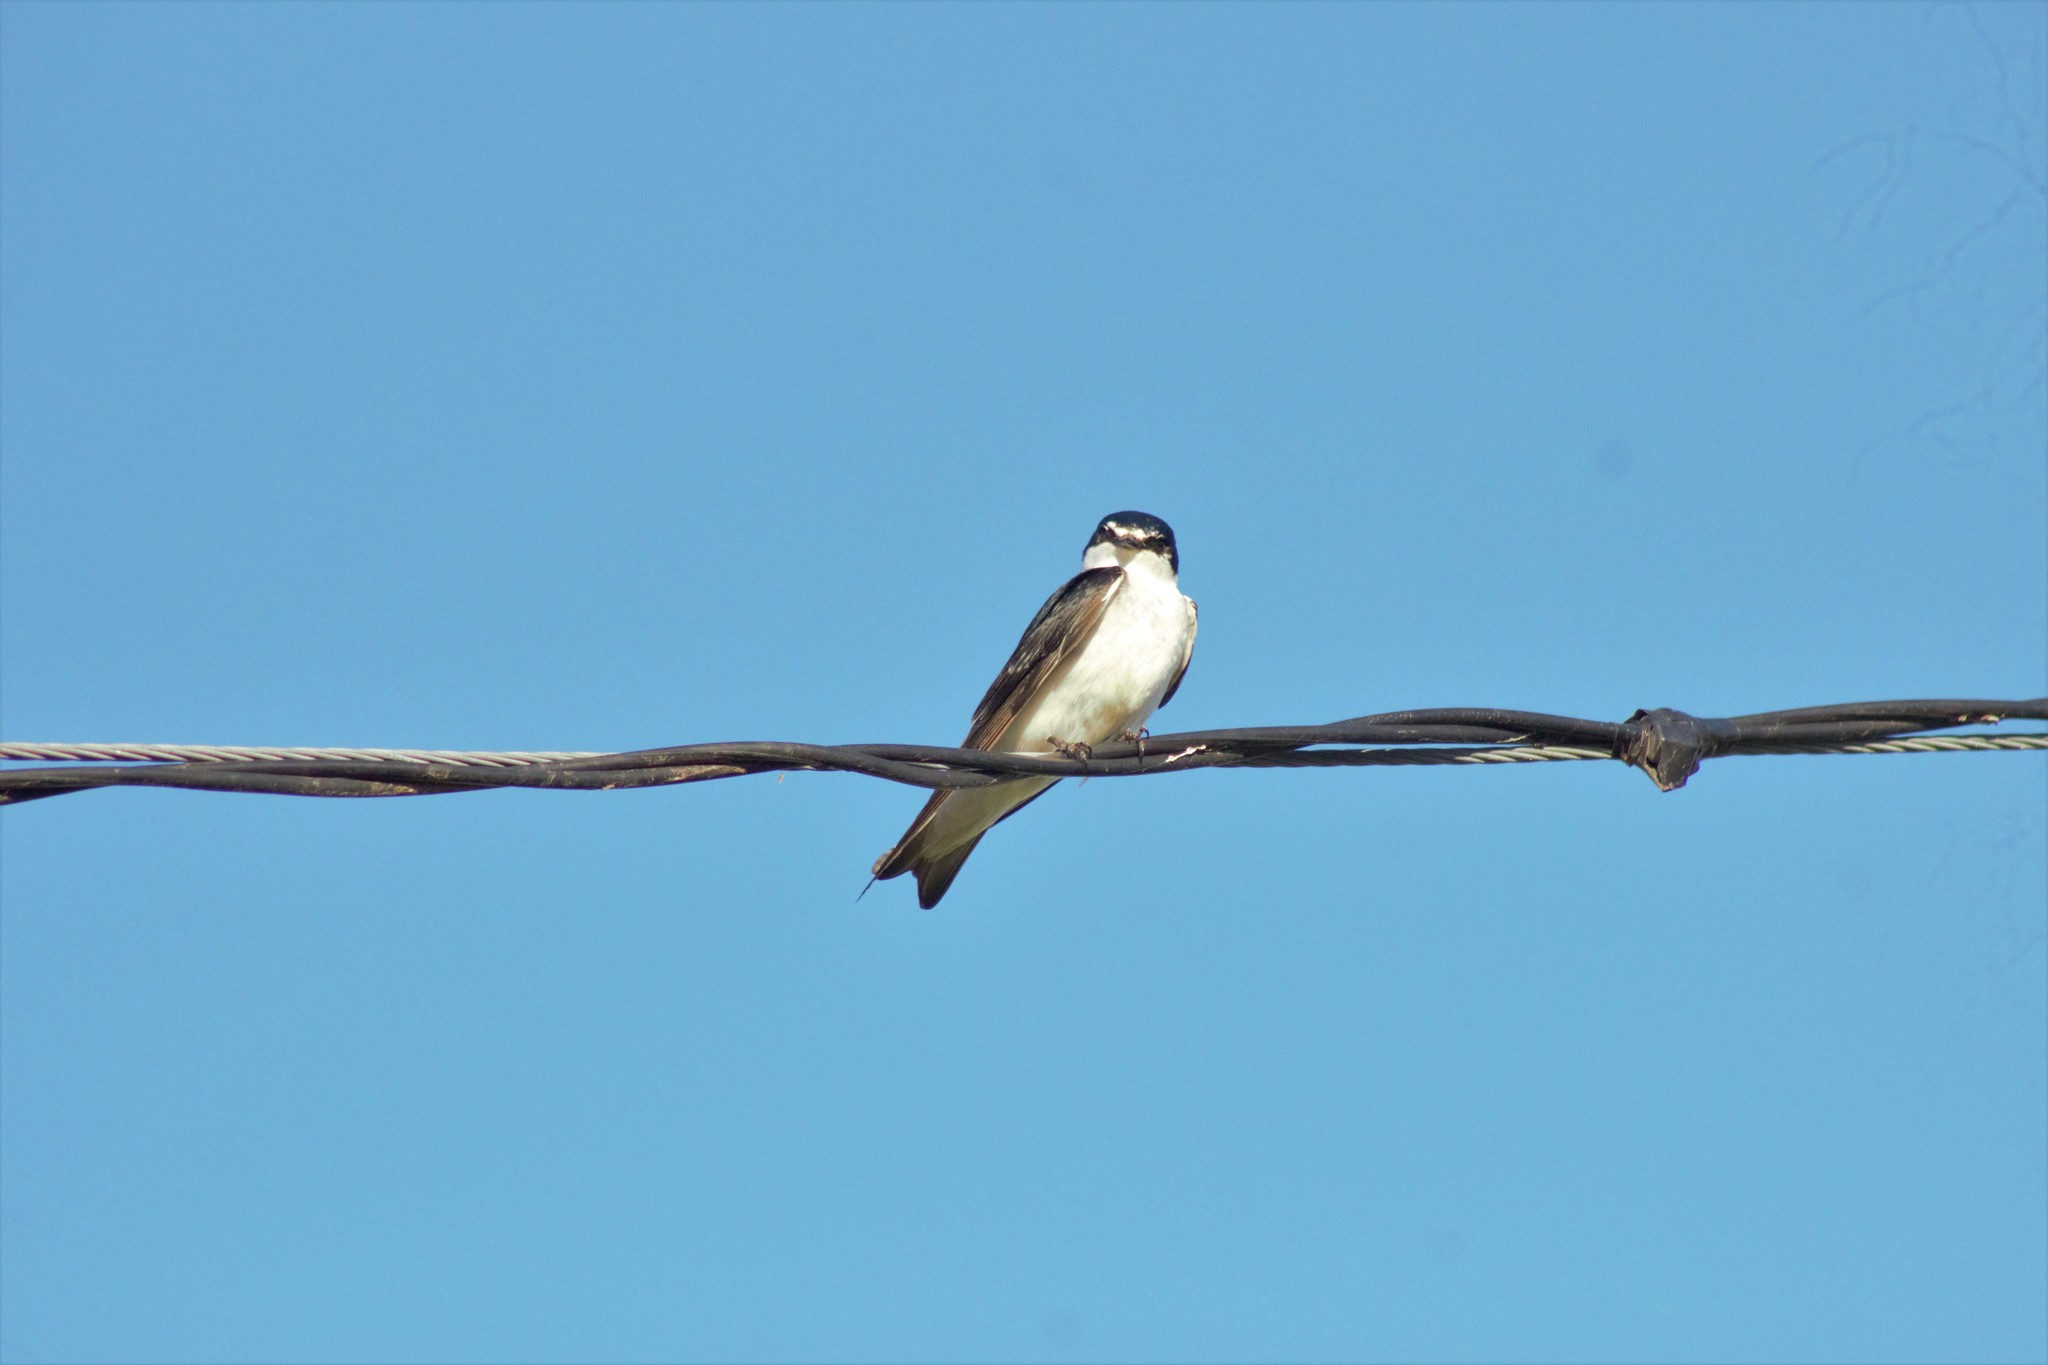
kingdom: Animalia
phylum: Chordata
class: Aves
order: Passeriformes
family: Hirundinidae
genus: Tachycineta
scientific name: Tachycineta leucorrhoa
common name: White-rumped swallow
